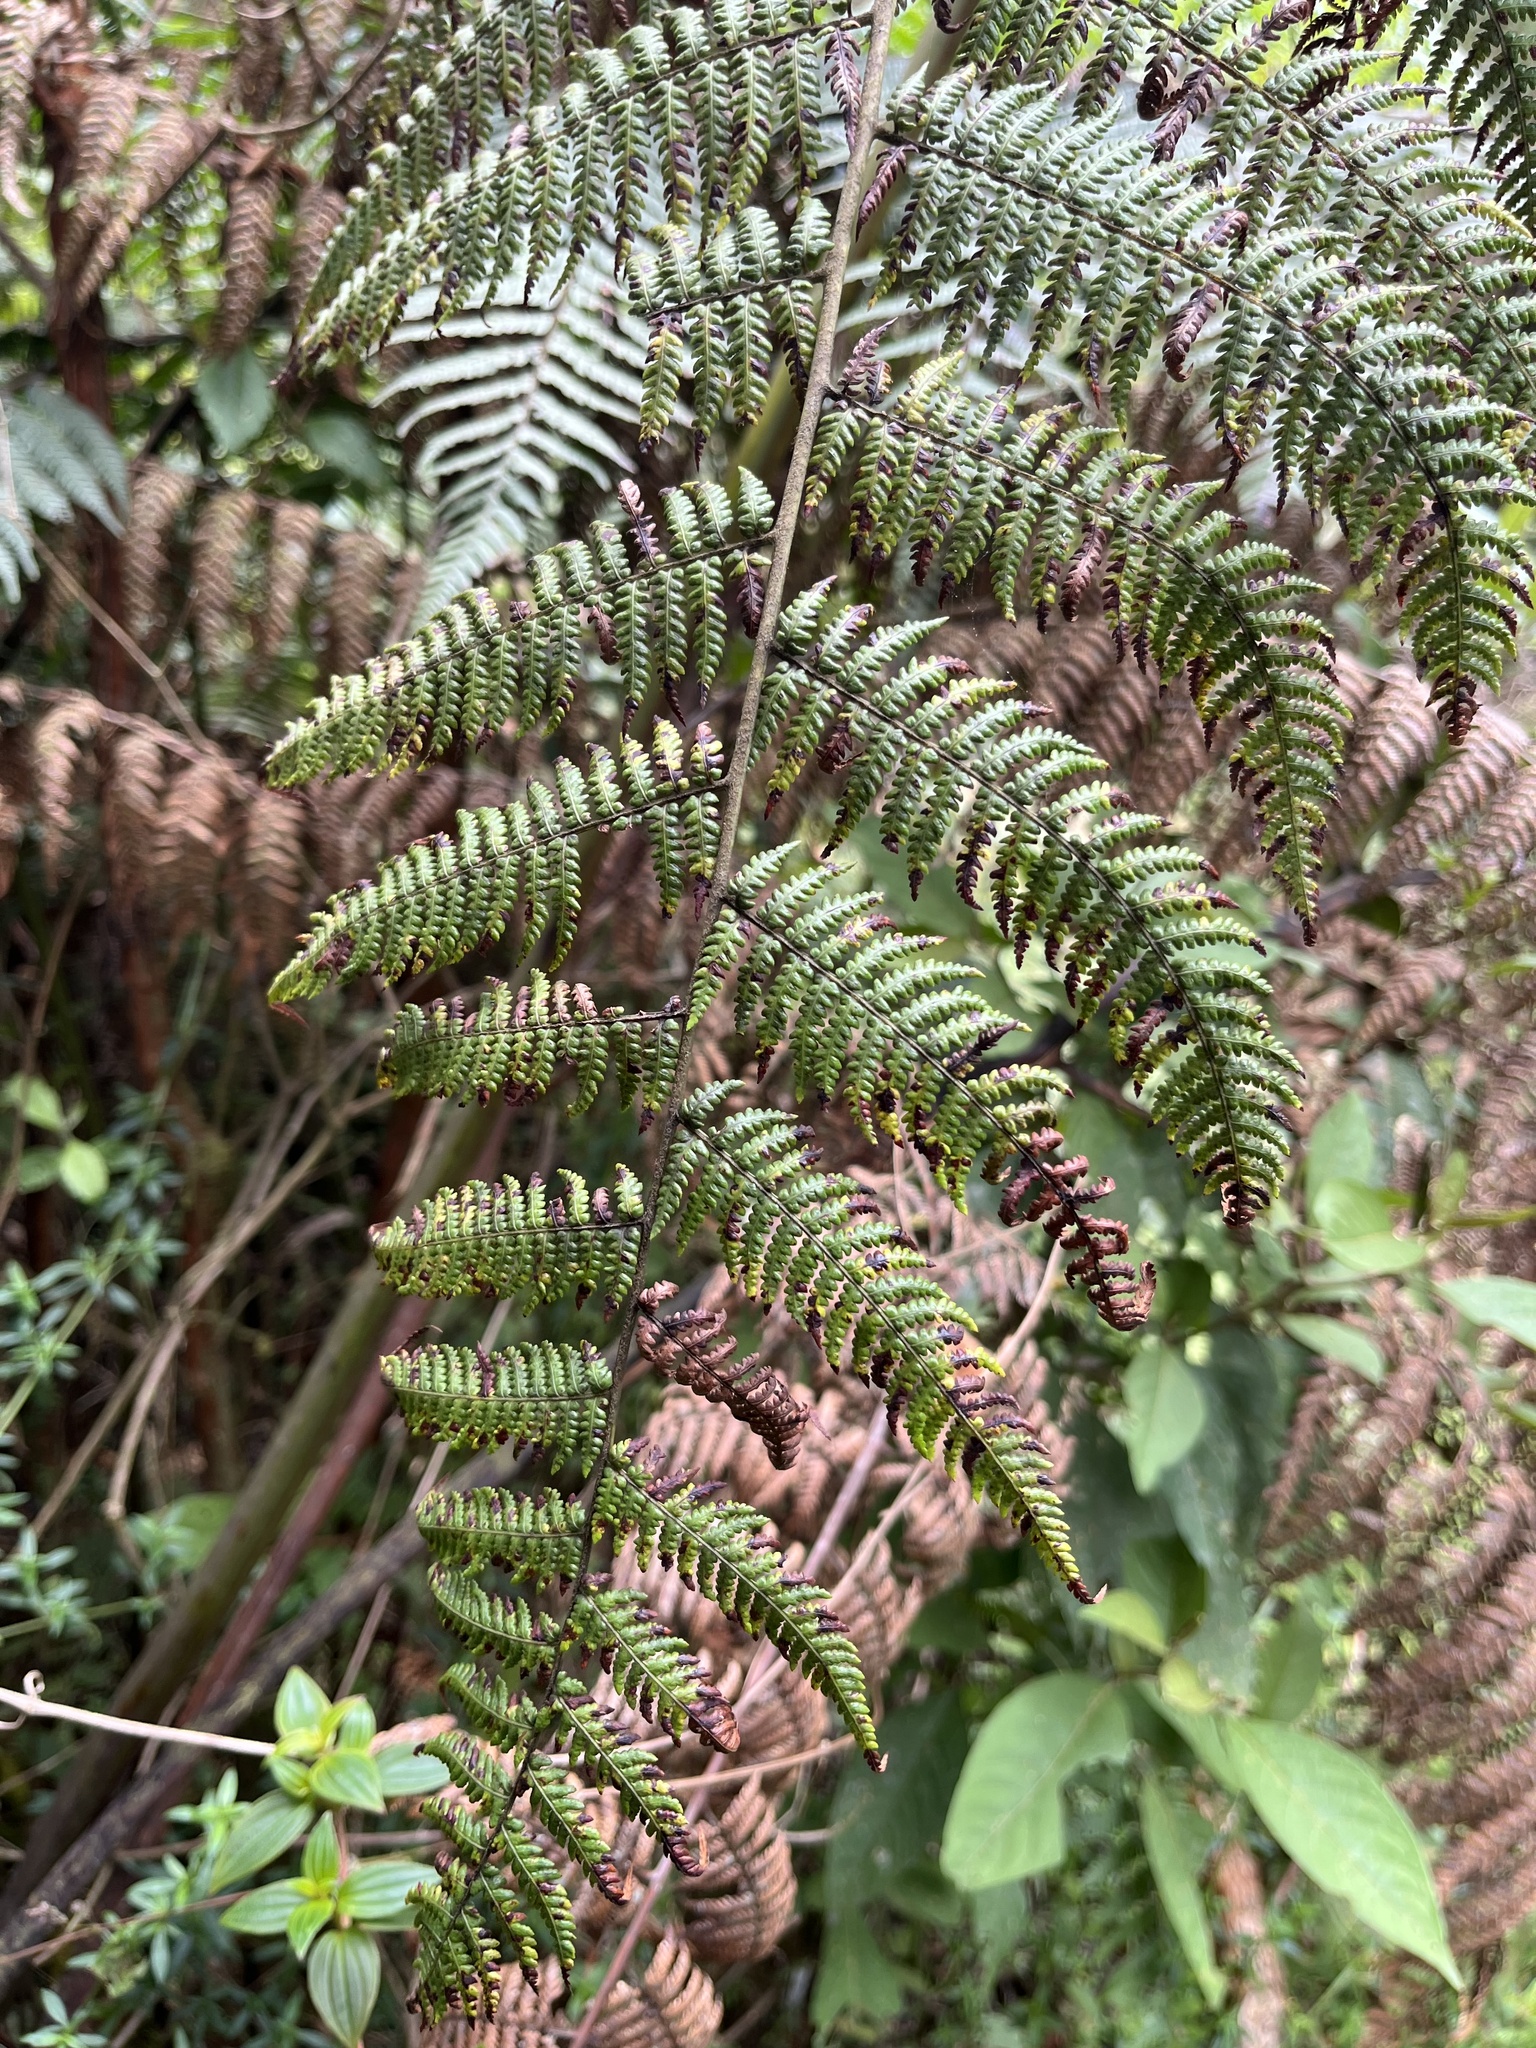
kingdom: Plantae
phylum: Tracheophyta
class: Polypodiopsida
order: Cyatheales
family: Dicksoniaceae
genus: Lophosoria
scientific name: Lophosoria quadripinnata
